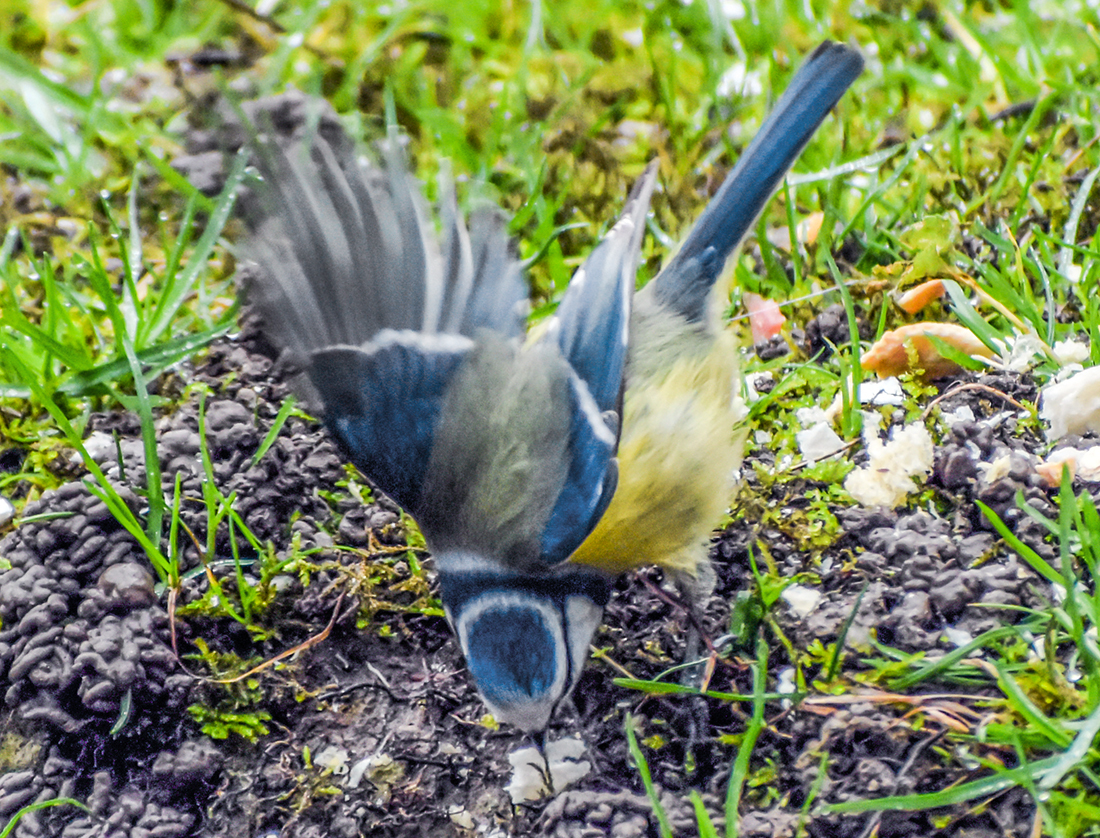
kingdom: Animalia
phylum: Chordata
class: Aves
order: Passeriformes
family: Paridae
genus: Cyanistes
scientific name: Cyanistes caeruleus
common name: Eurasian blue tit
